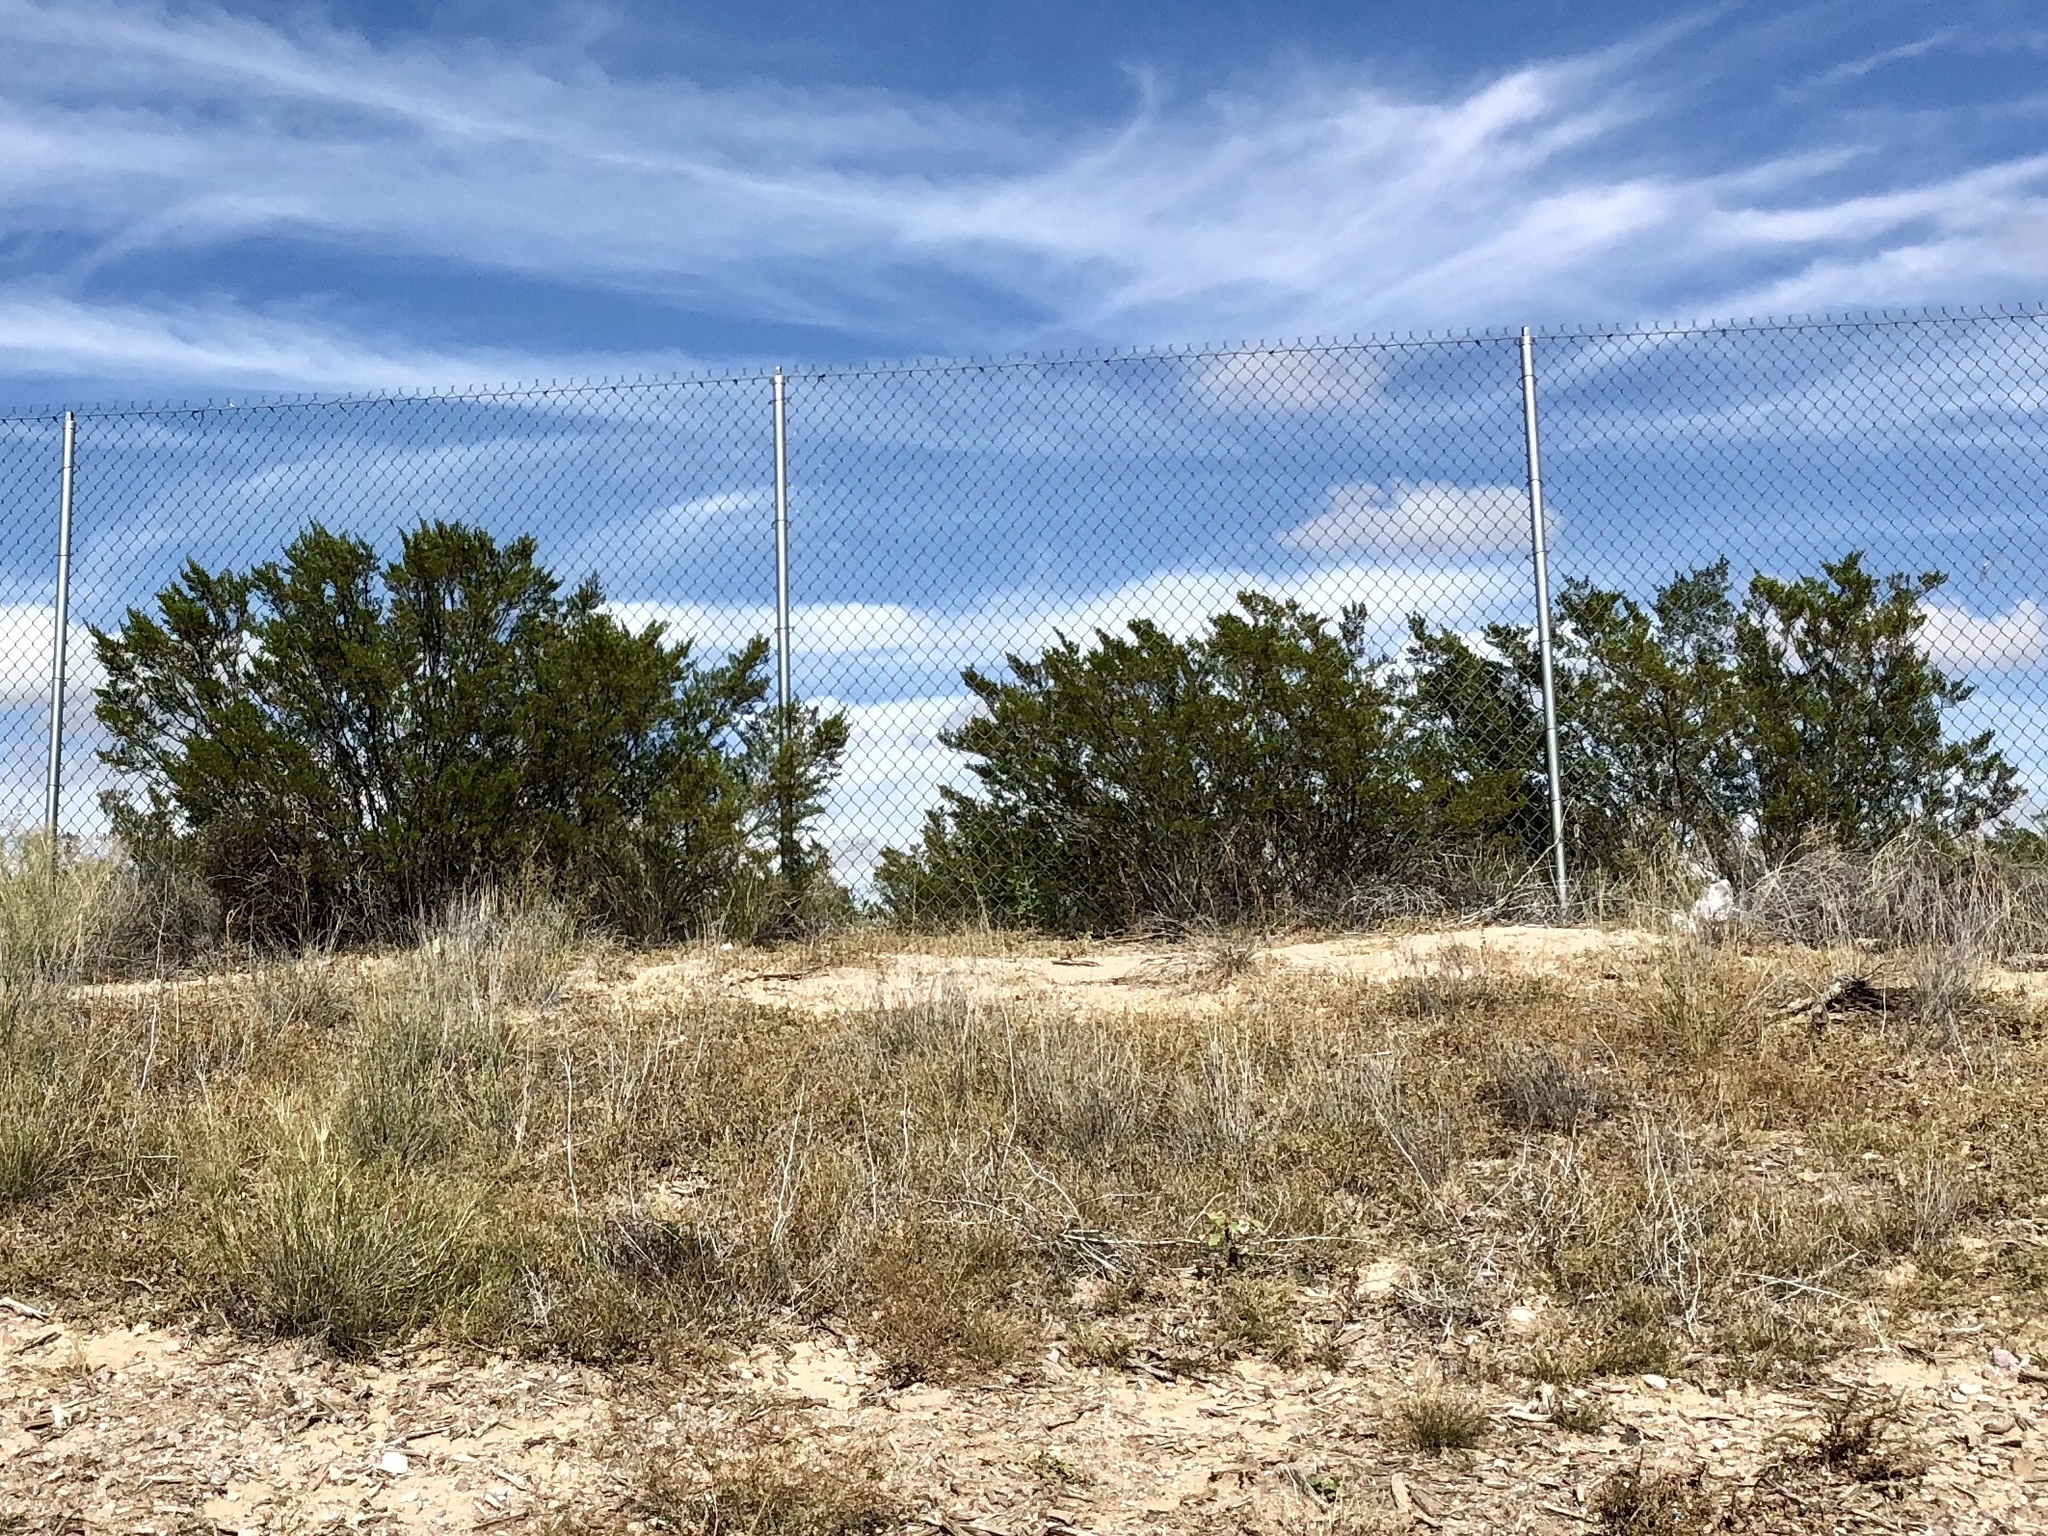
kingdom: Plantae
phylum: Tracheophyta
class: Magnoliopsida
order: Zygophyllales
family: Zygophyllaceae
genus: Larrea
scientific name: Larrea tridentata
